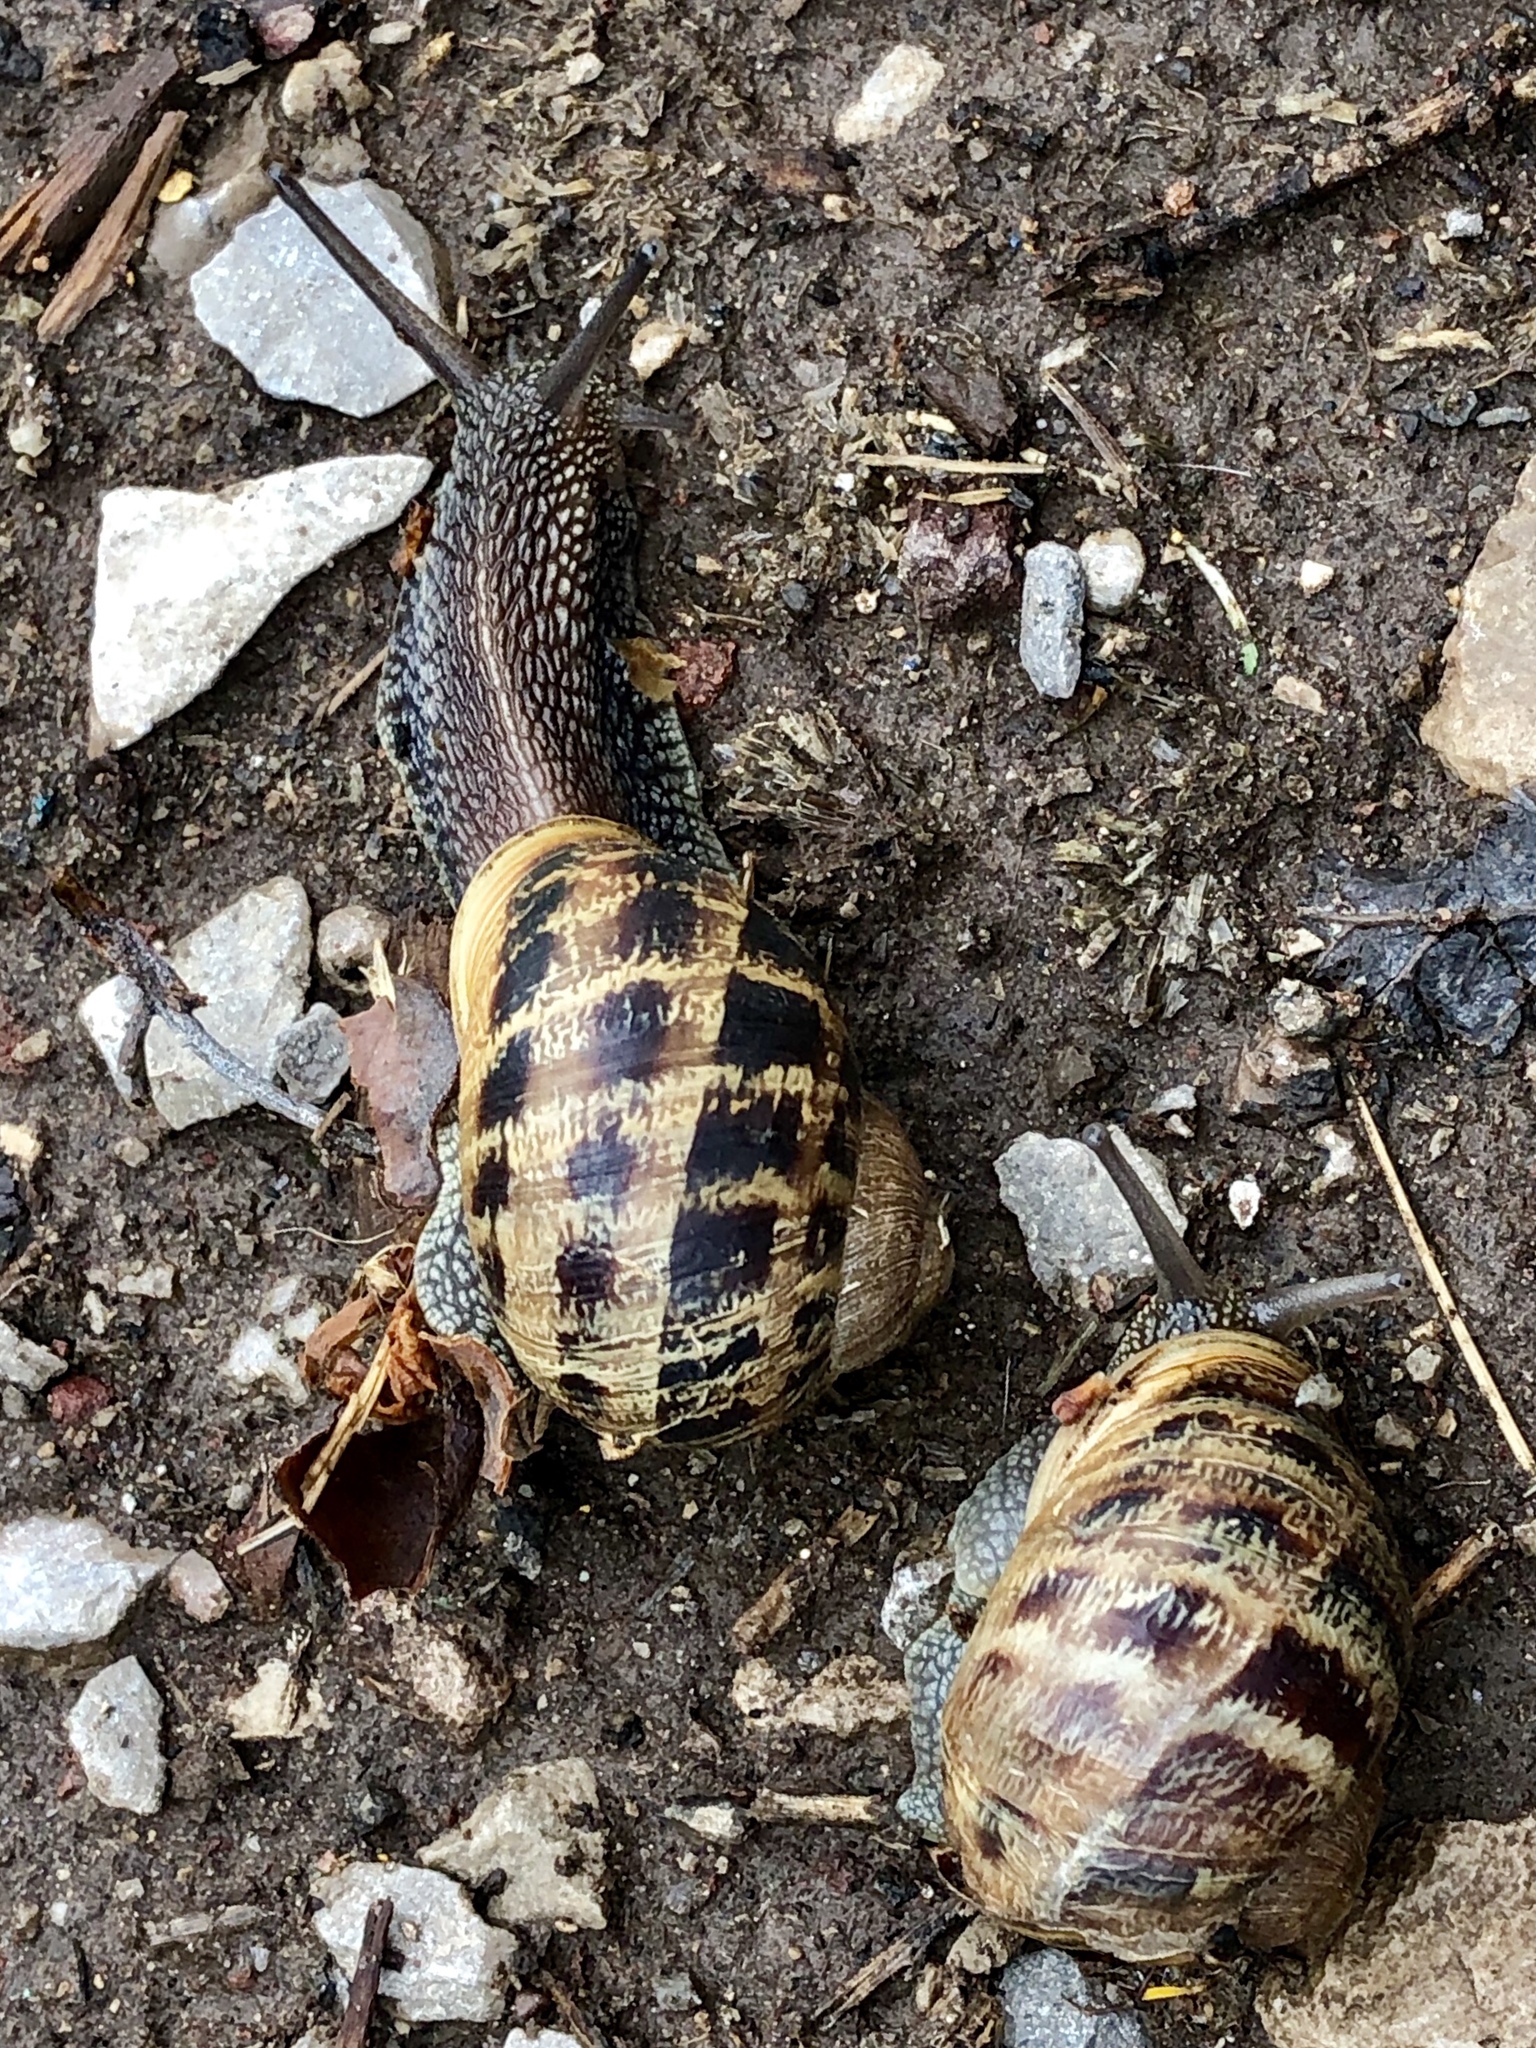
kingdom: Animalia
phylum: Mollusca
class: Gastropoda
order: Stylommatophora
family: Helicidae
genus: Cornu
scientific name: Cornu aspersum
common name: Brown garden snail
